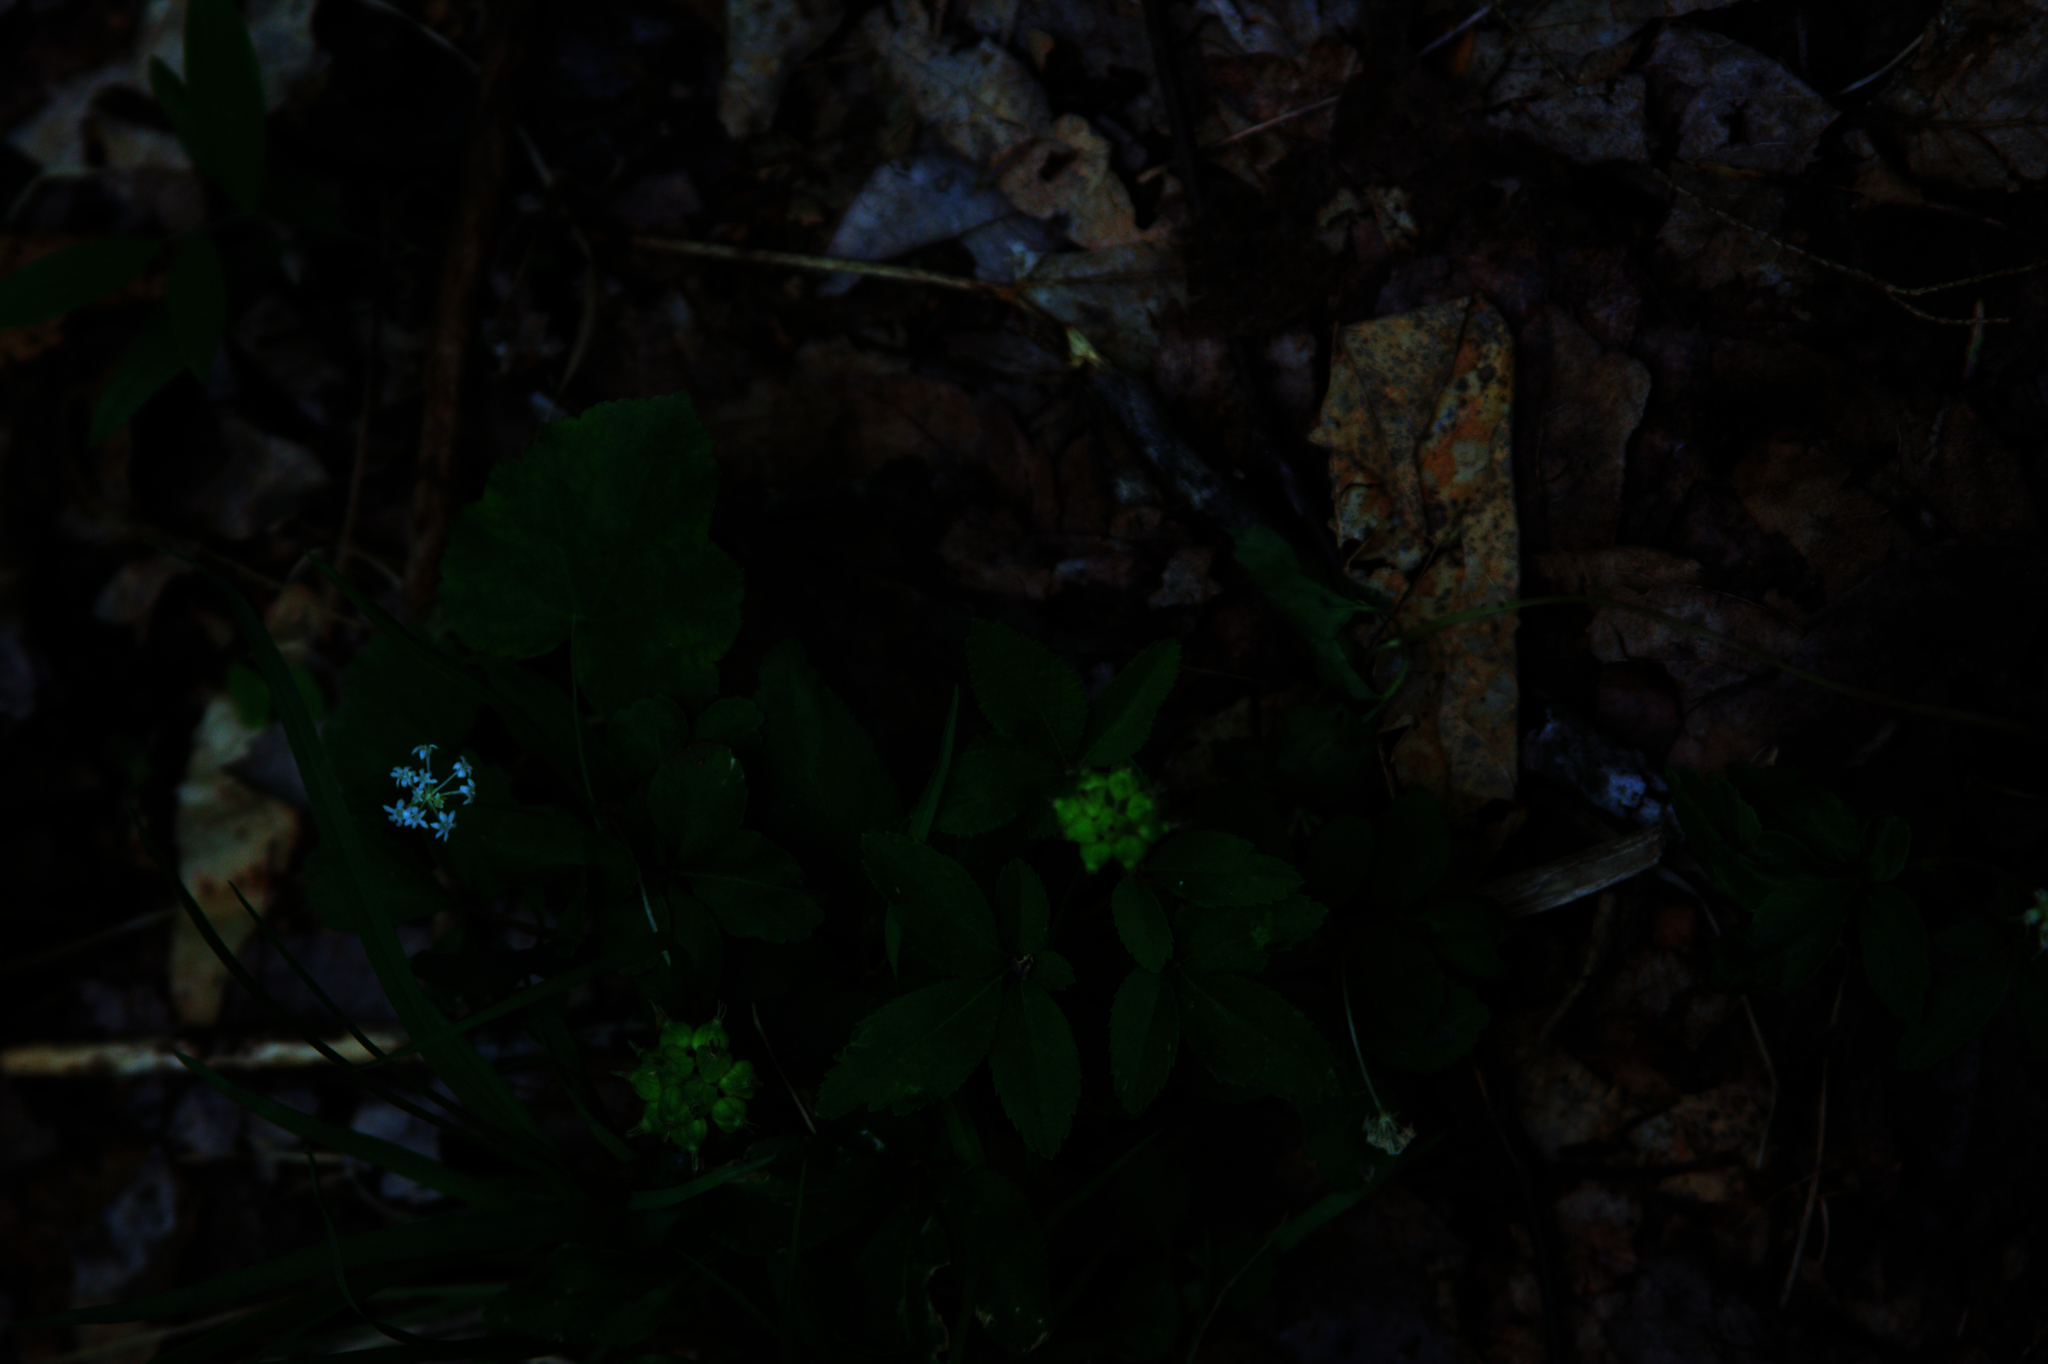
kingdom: Plantae
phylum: Tracheophyta
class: Magnoliopsida
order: Apiales
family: Araliaceae
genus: Panax
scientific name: Panax trifolius
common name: Dwarf ginseng
